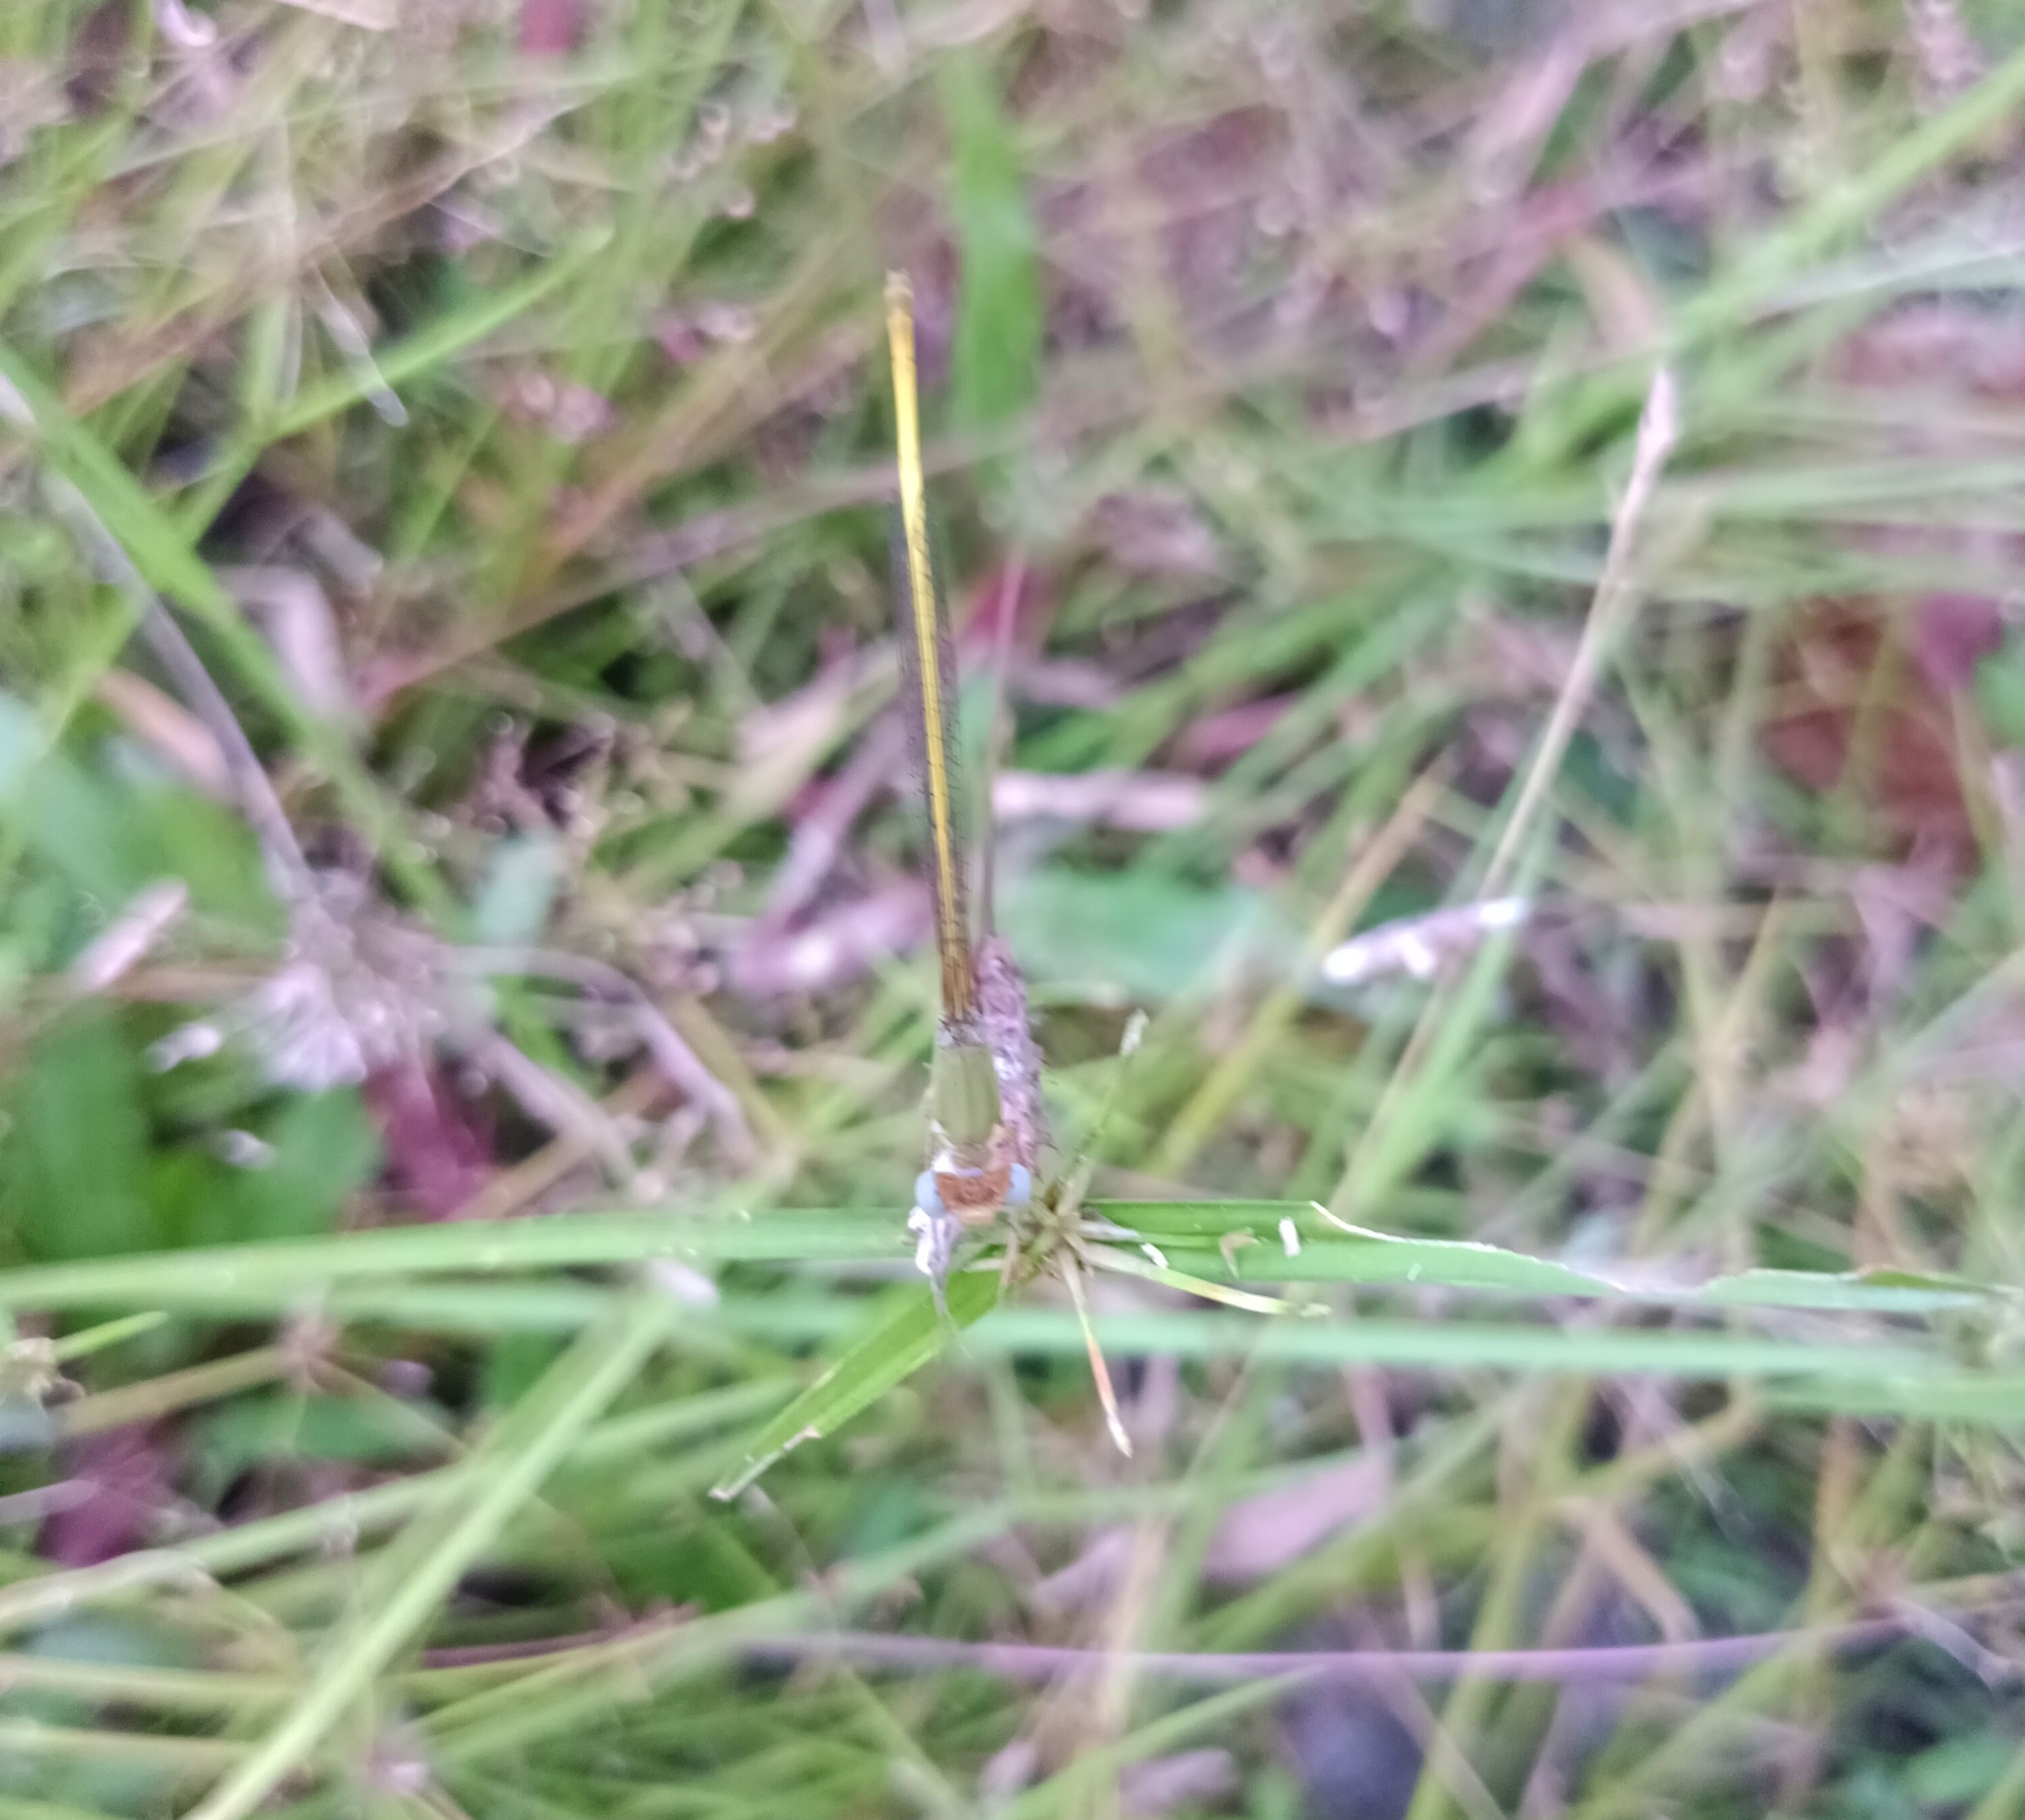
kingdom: Animalia
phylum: Arthropoda
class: Insecta
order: Odonata
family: Coenagrionidae
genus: Ceriagrion
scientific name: Ceriagrion coromandelianum
